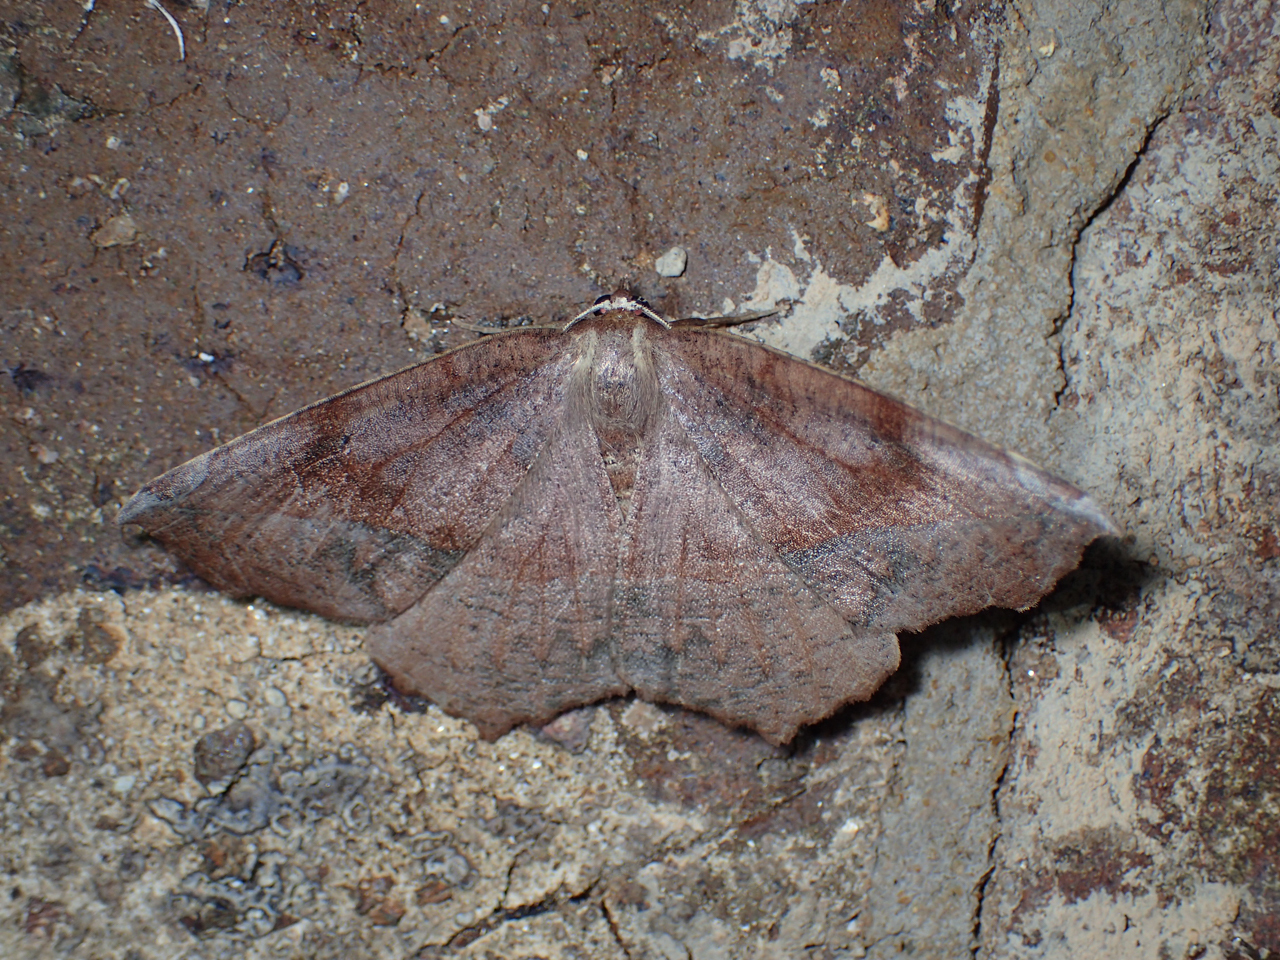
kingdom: Animalia
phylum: Arthropoda
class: Insecta
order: Lepidoptera
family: Geometridae
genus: Eutrapela
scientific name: Eutrapela clemataria
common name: Curved-toothed geometer
